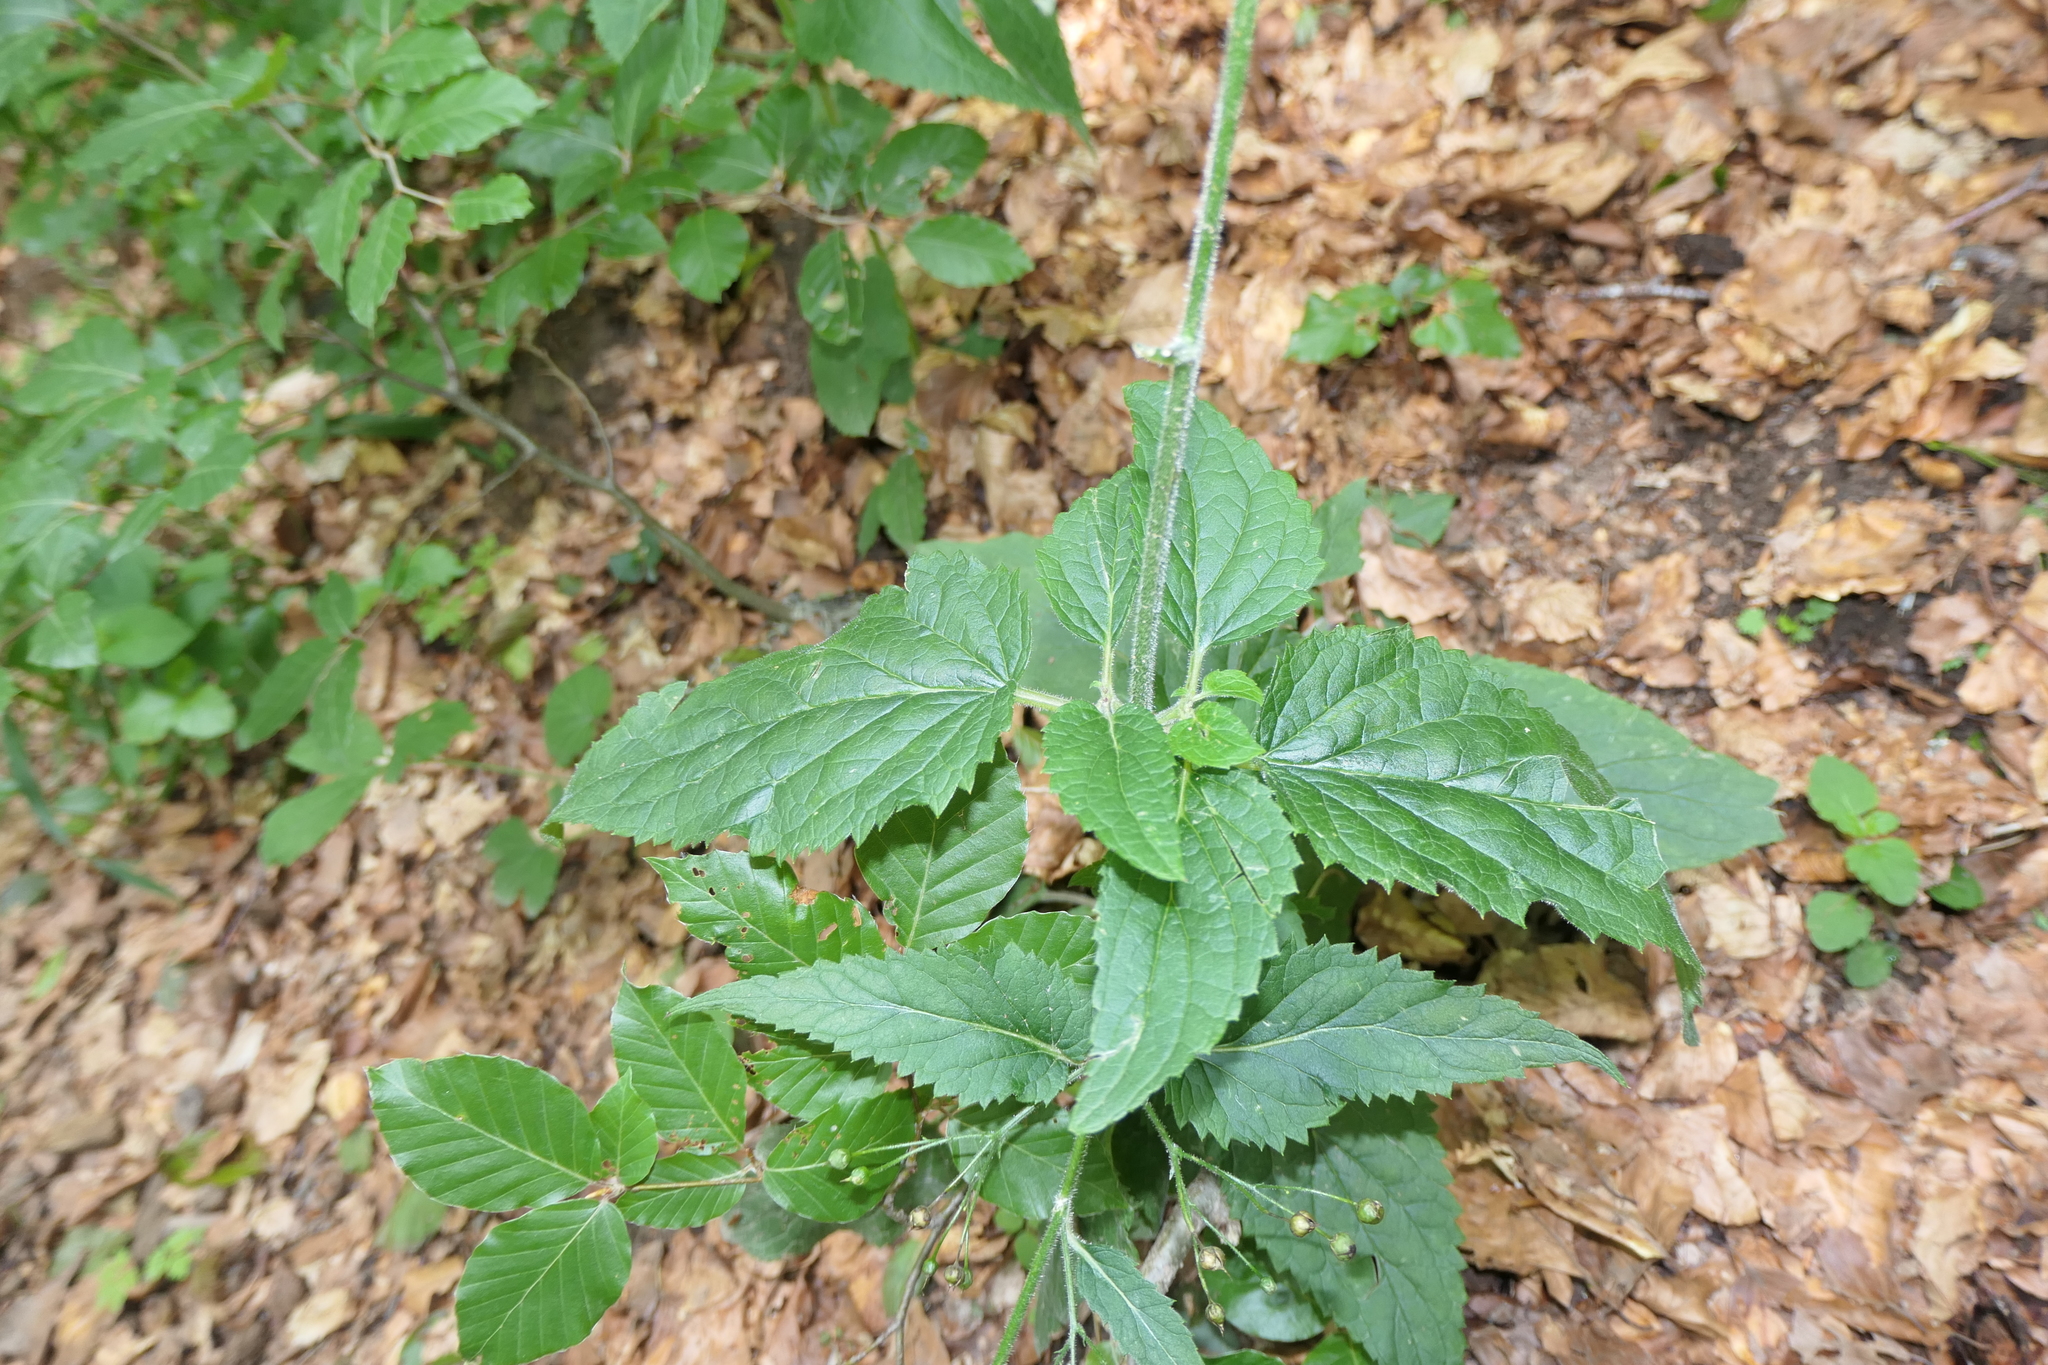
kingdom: Plantae
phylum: Tracheophyta
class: Magnoliopsida
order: Lamiales
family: Scrophulariaceae
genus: Scrophularia
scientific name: Scrophularia alpestris
